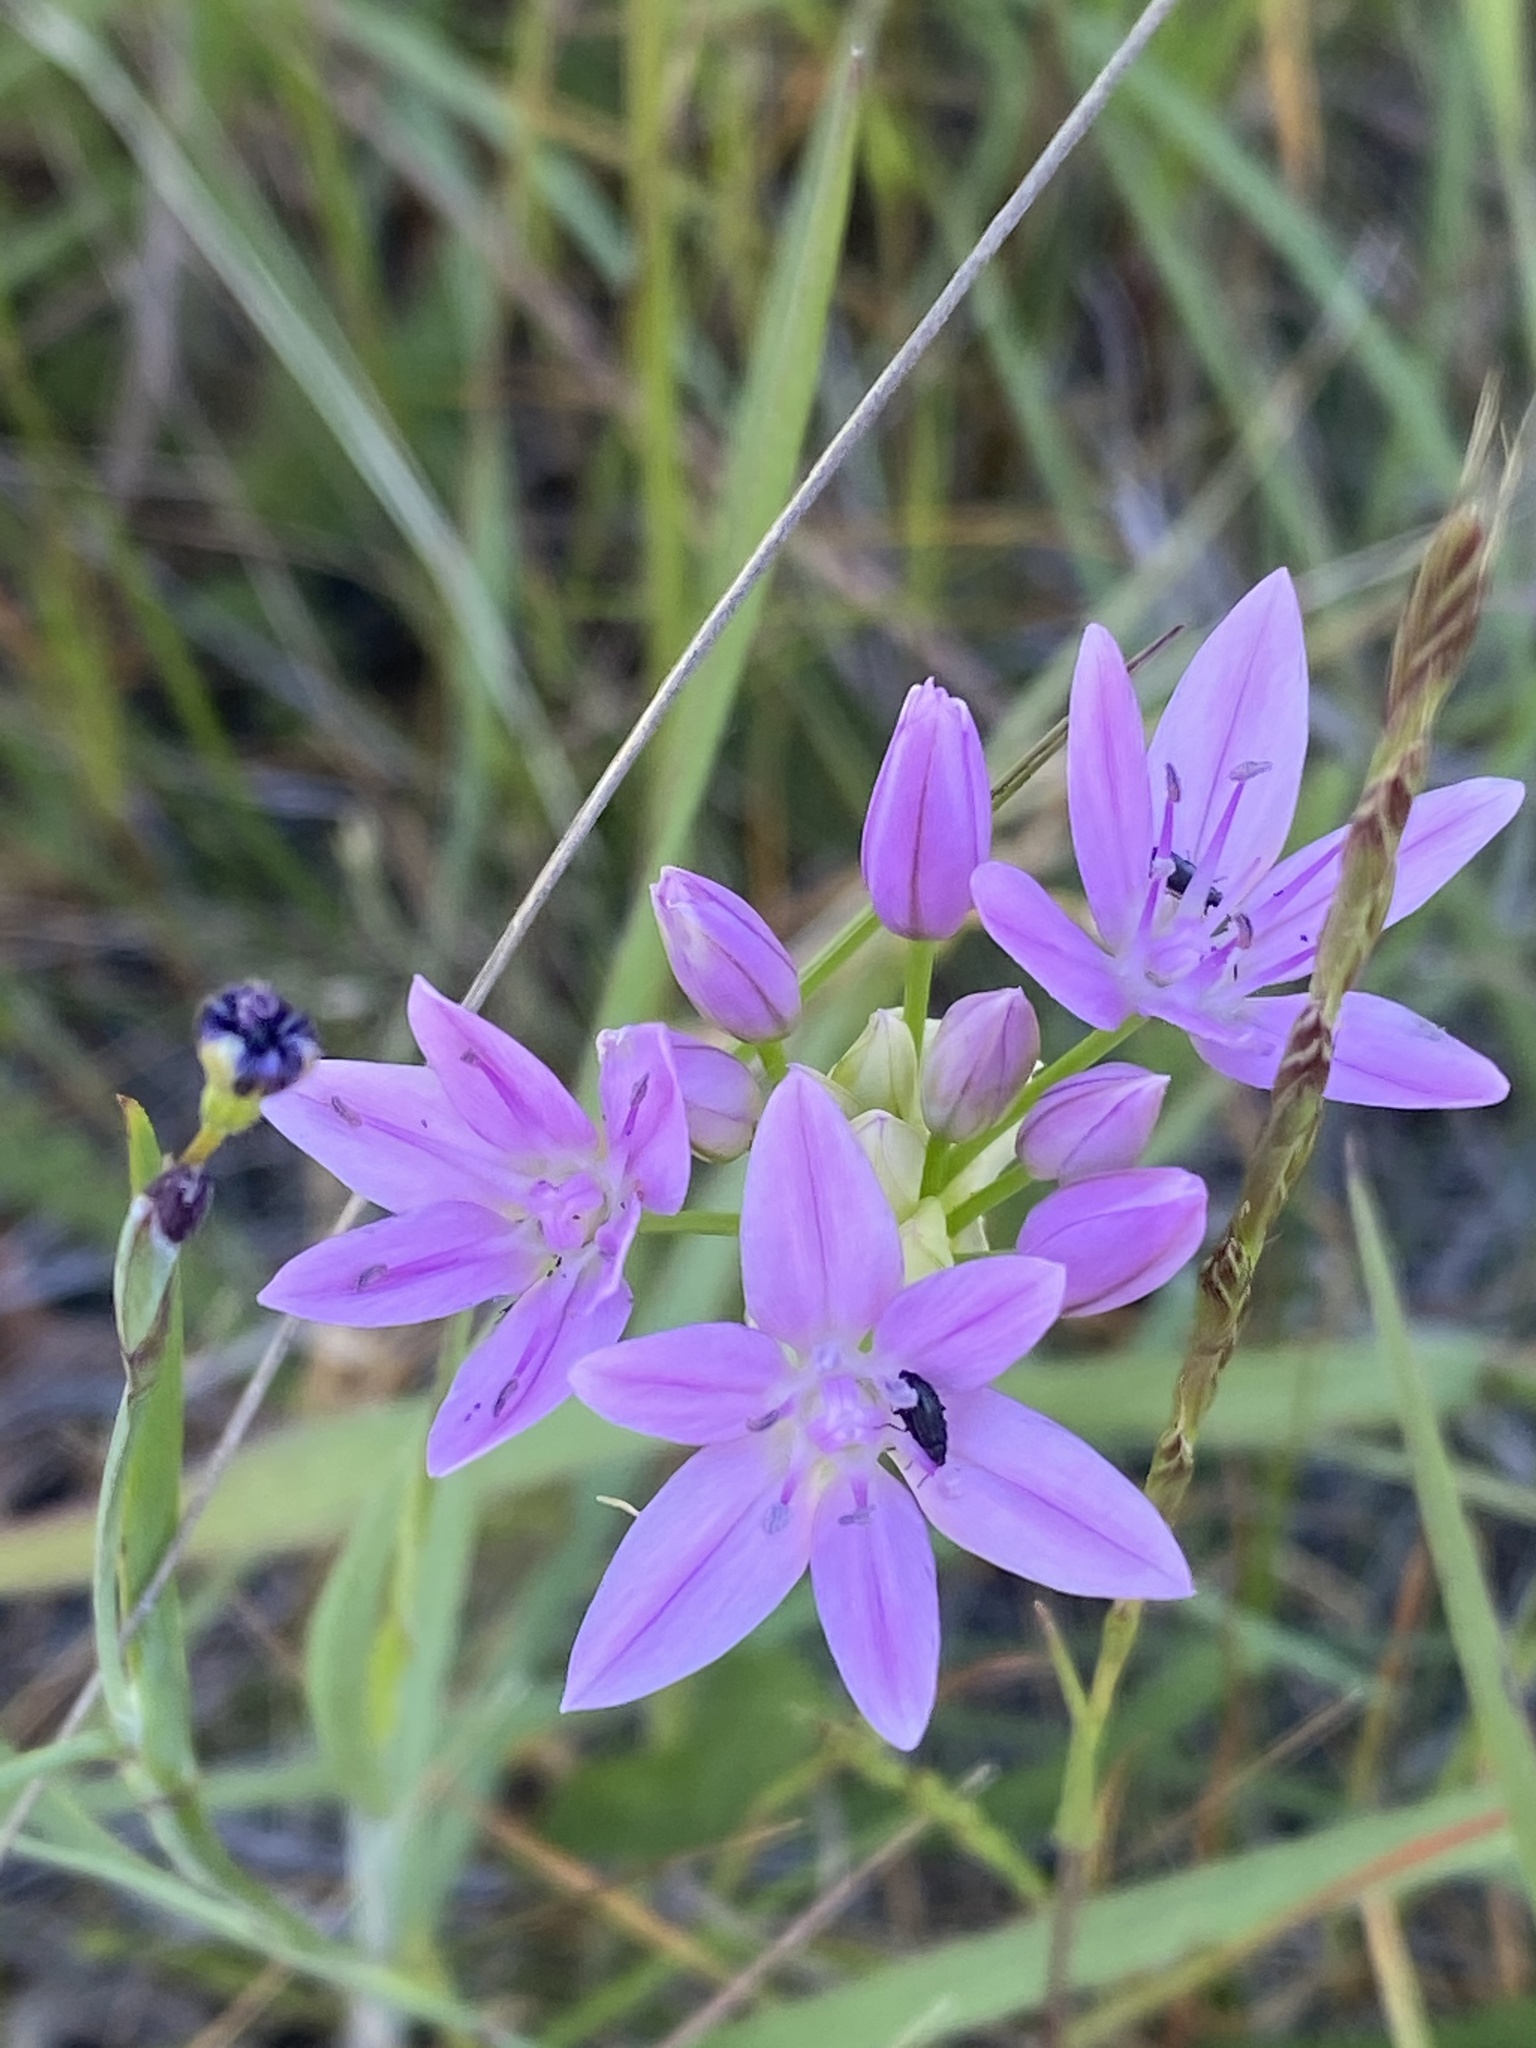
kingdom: Plantae
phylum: Tracheophyta
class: Liliopsida
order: Asparagales
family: Amaryllidaceae
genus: Allium
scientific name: Allium unifolium
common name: American garlic
